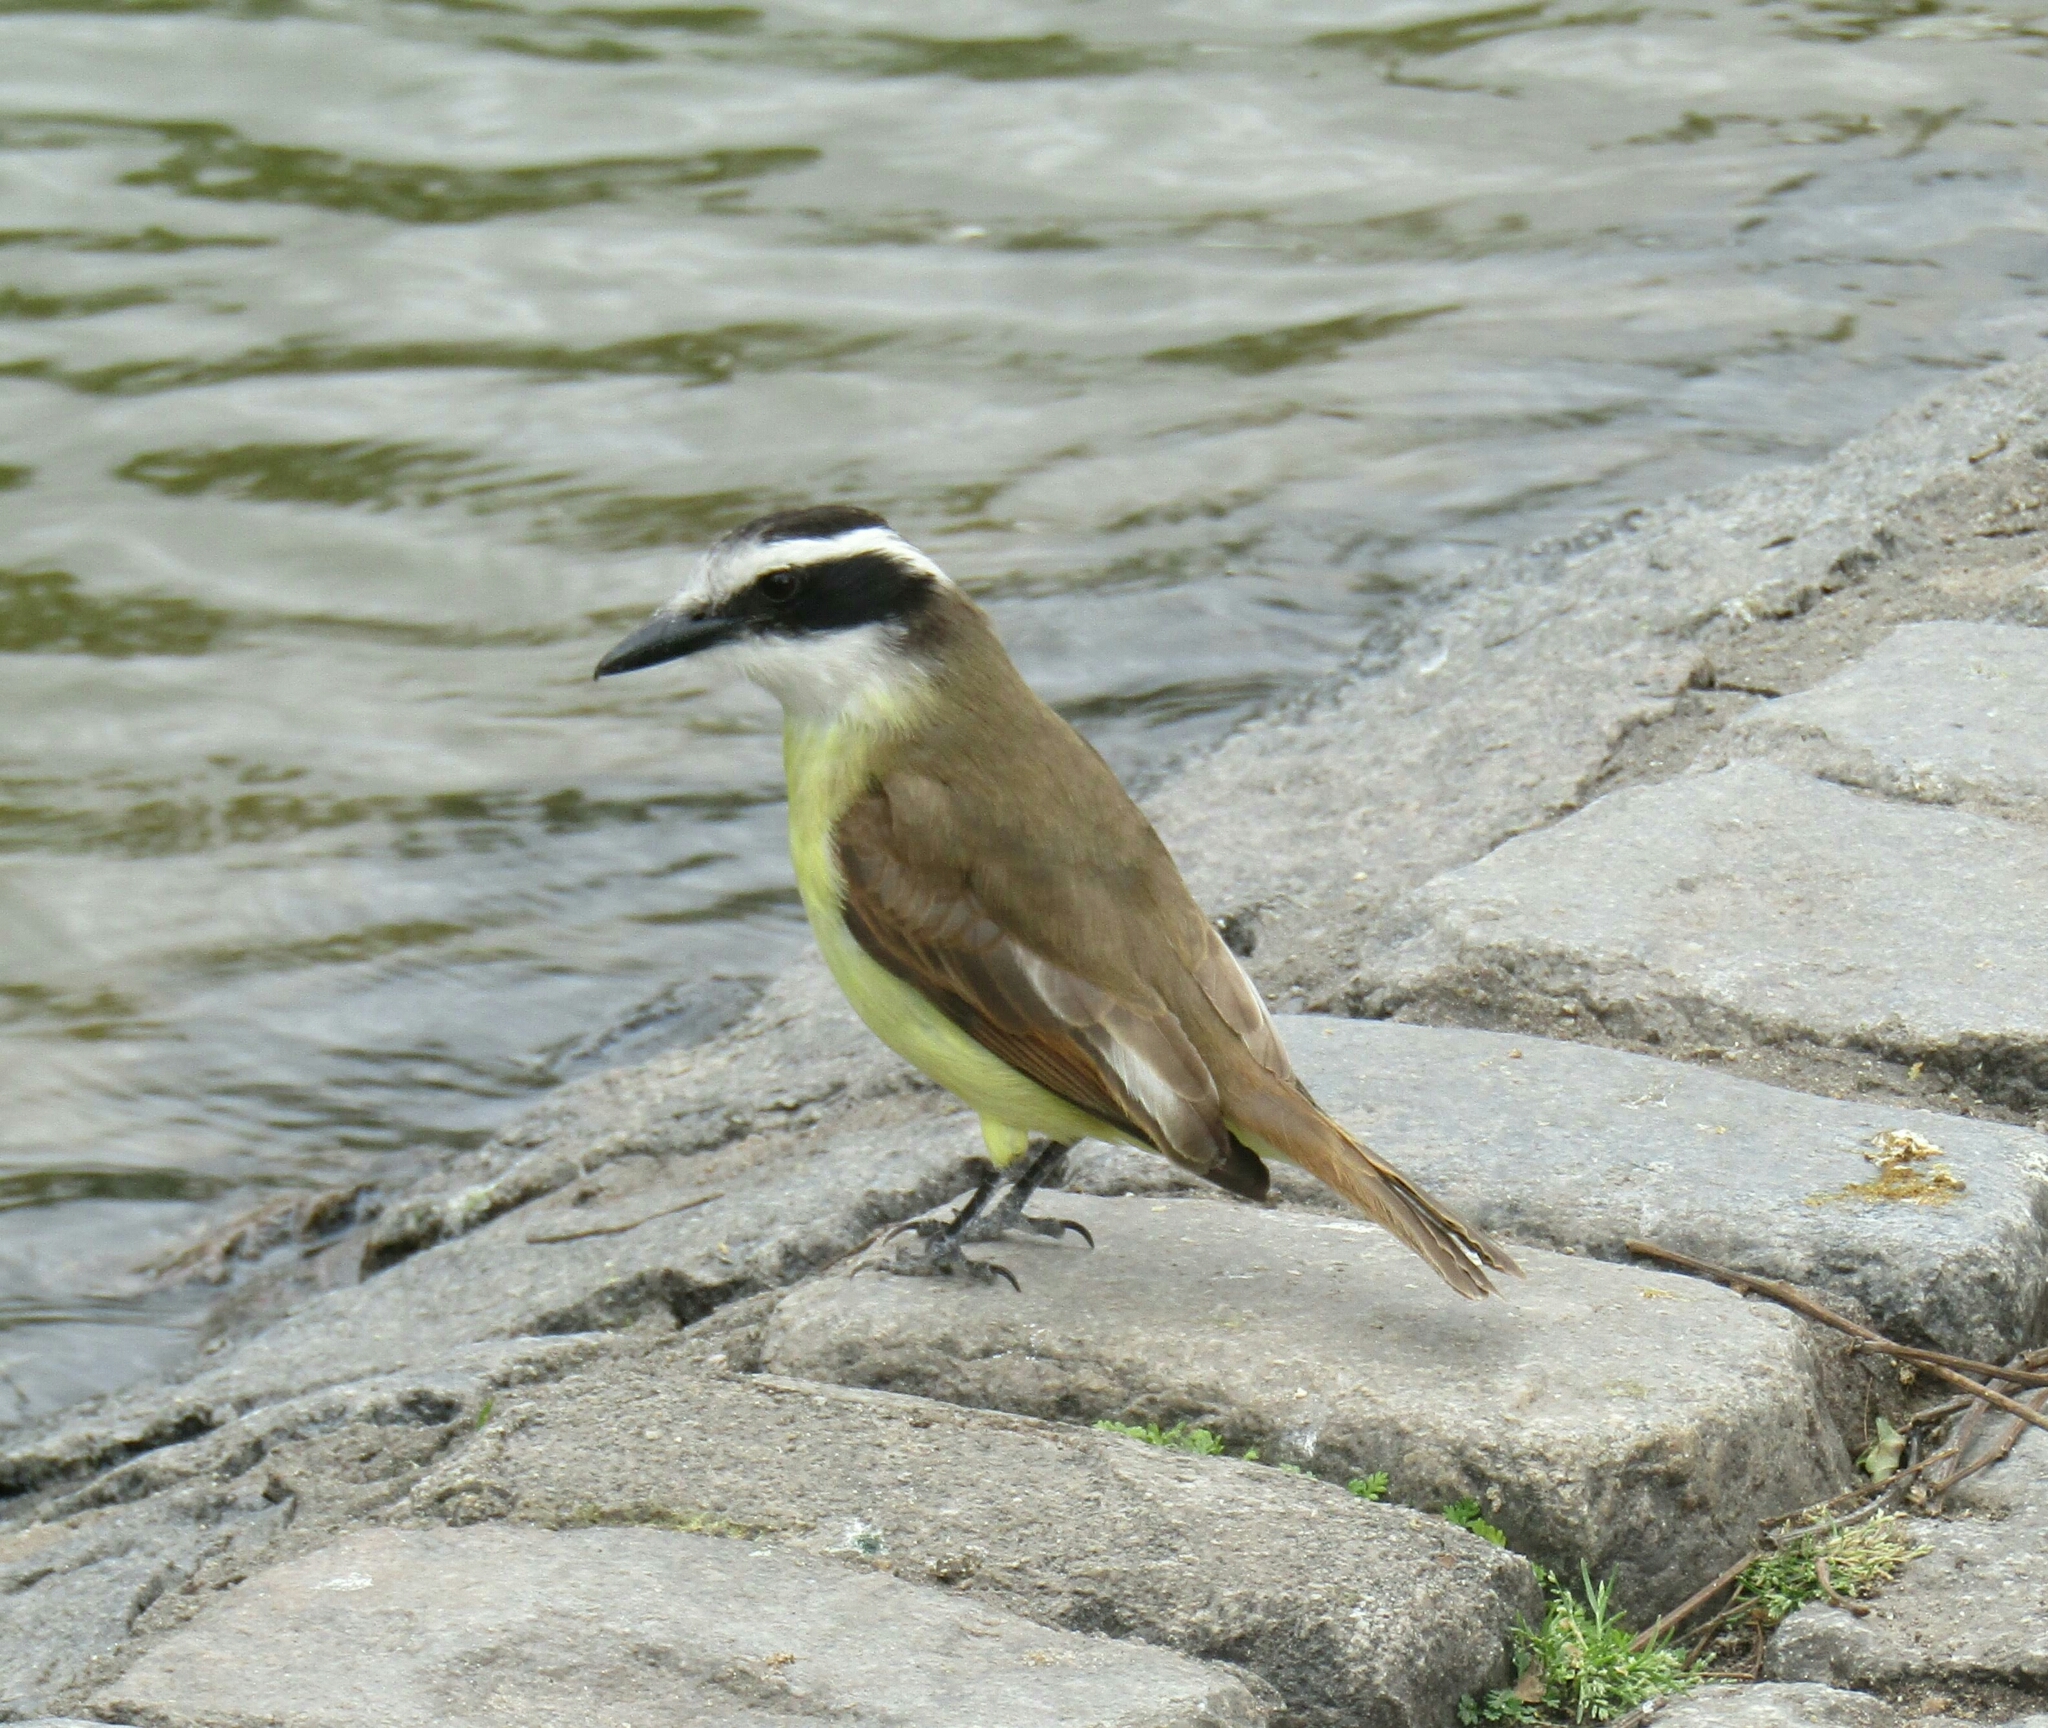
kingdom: Animalia
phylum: Chordata
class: Aves
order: Passeriformes
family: Tyrannidae
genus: Pitangus
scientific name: Pitangus sulphuratus
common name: Great kiskadee
